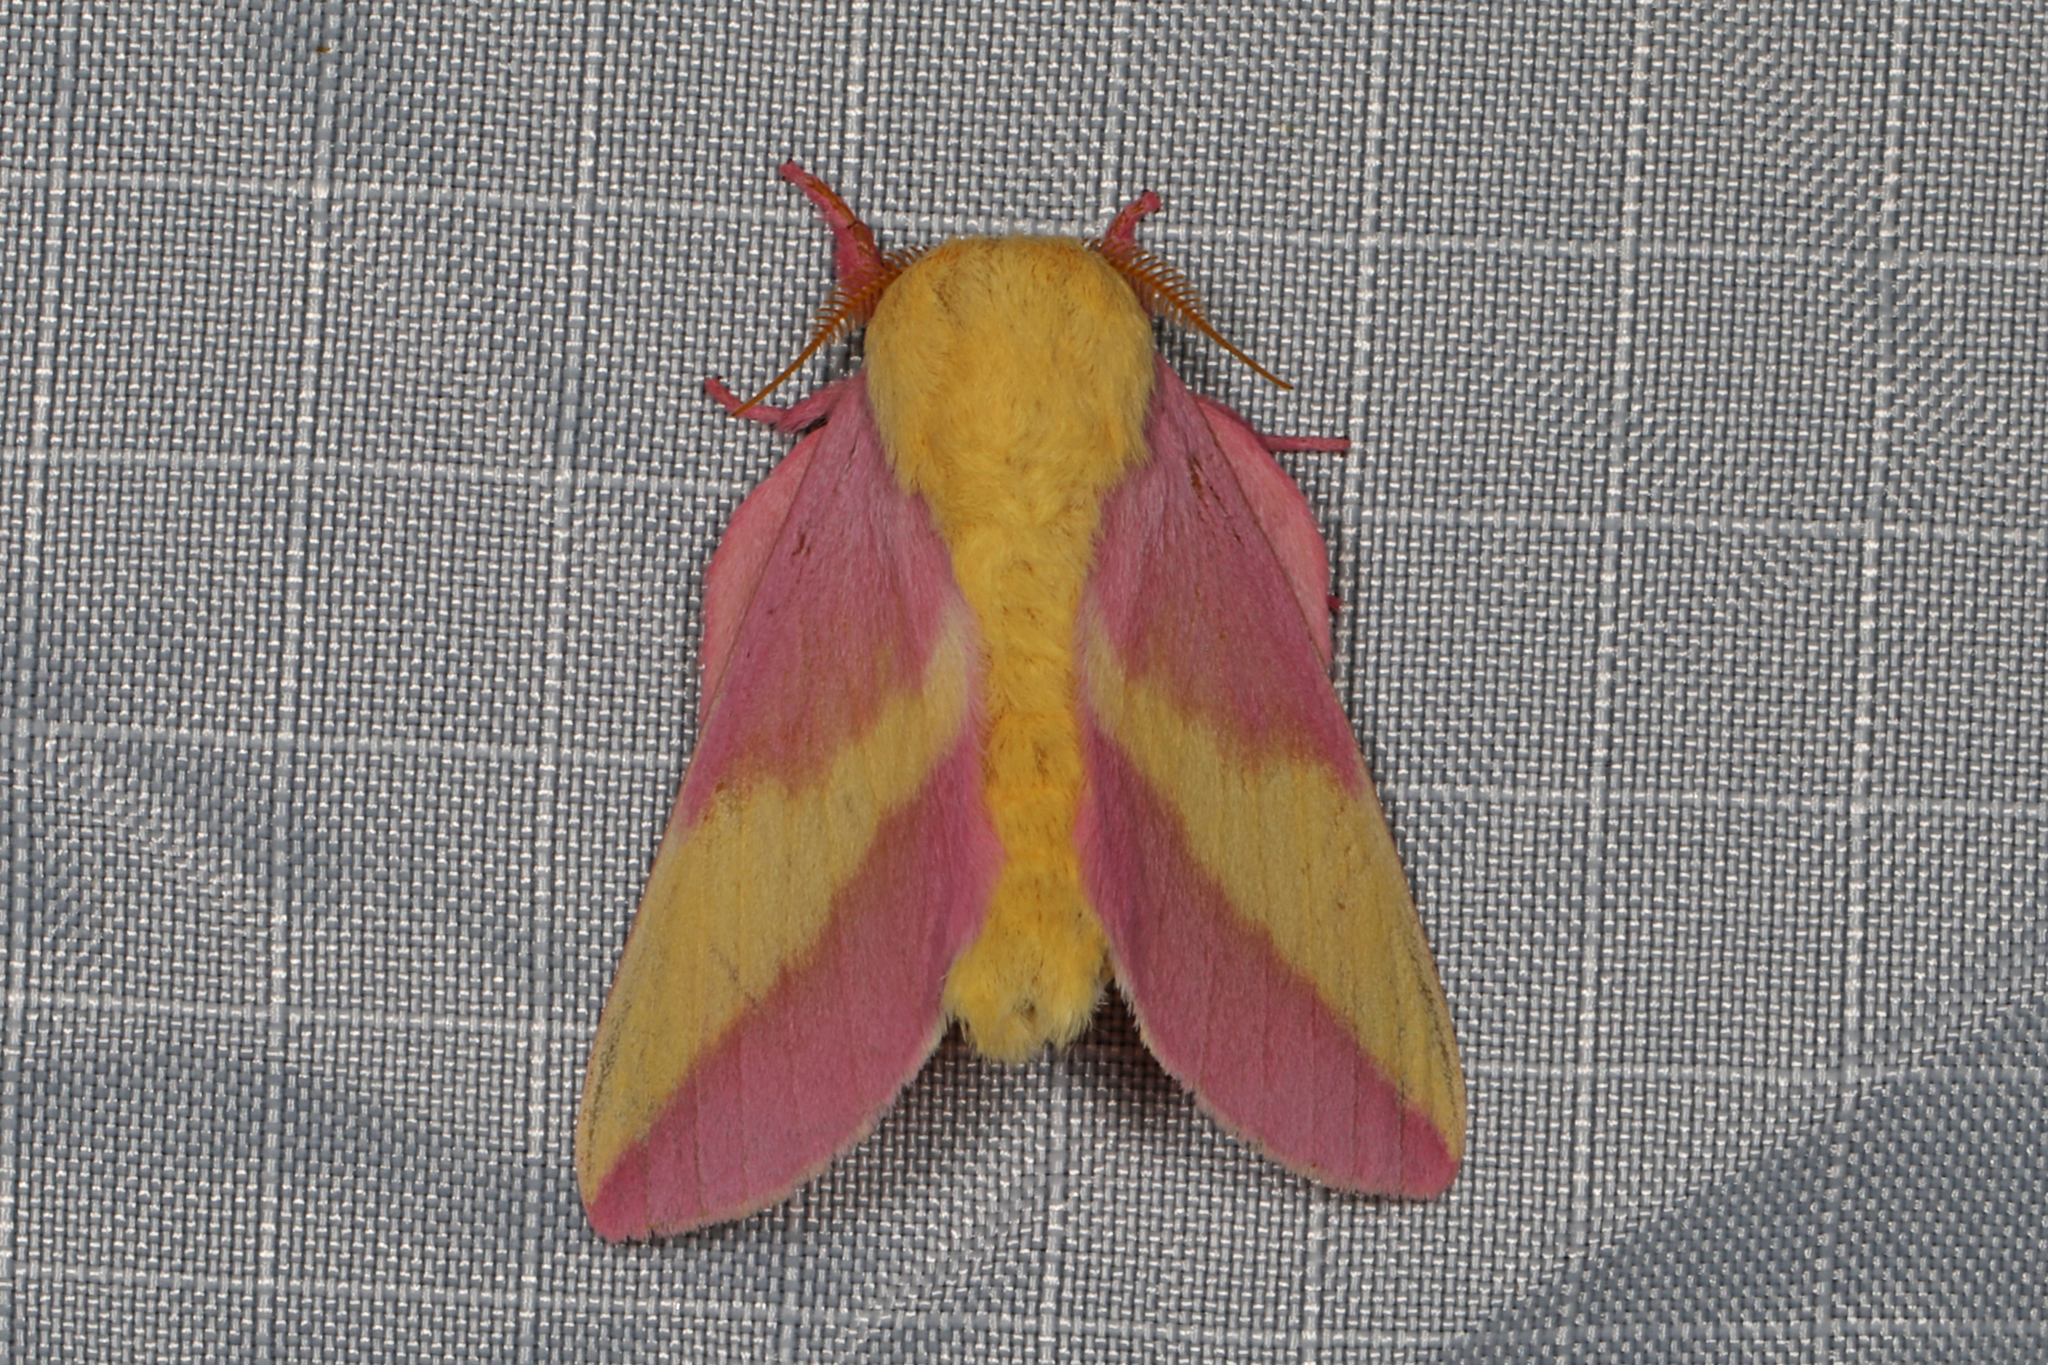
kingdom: Animalia
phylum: Arthropoda
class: Insecta
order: Lepidoptera
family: Saturniidae
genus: Dryocampa
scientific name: Dryocampa rubicunda
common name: Rosy maple moth
